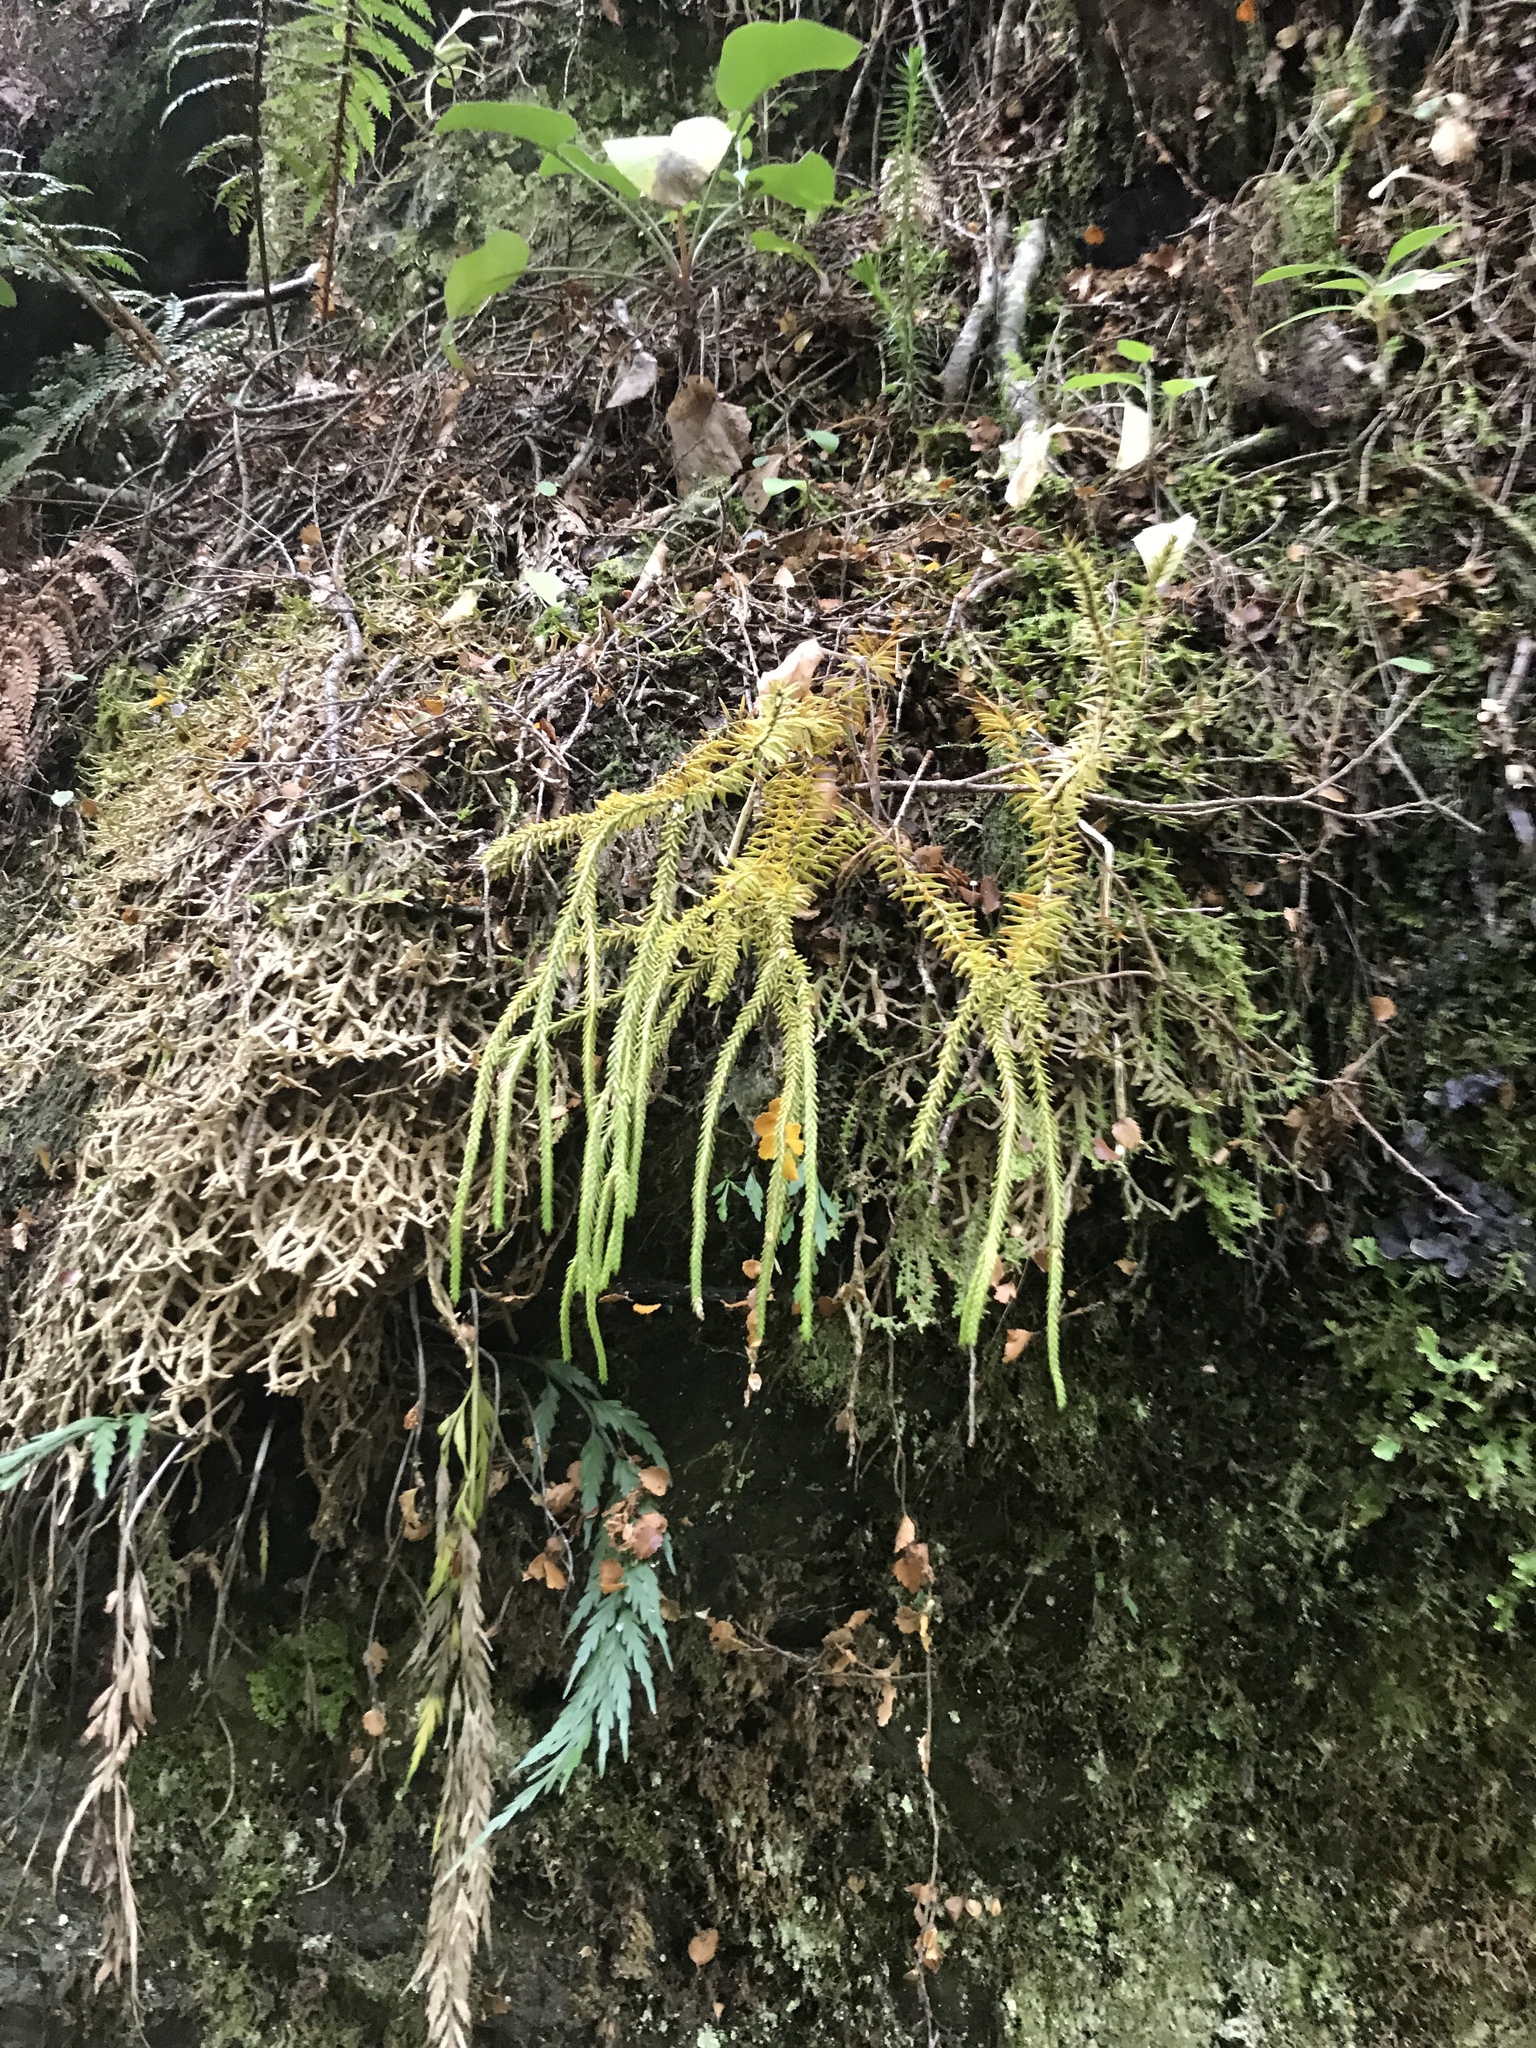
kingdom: Plantae
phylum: Tracheophyta
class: Lycopodiopsida
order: Lycopodiales
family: Lycopodiaceae
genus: Phlegmariurus
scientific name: Phlegmariurus varius
